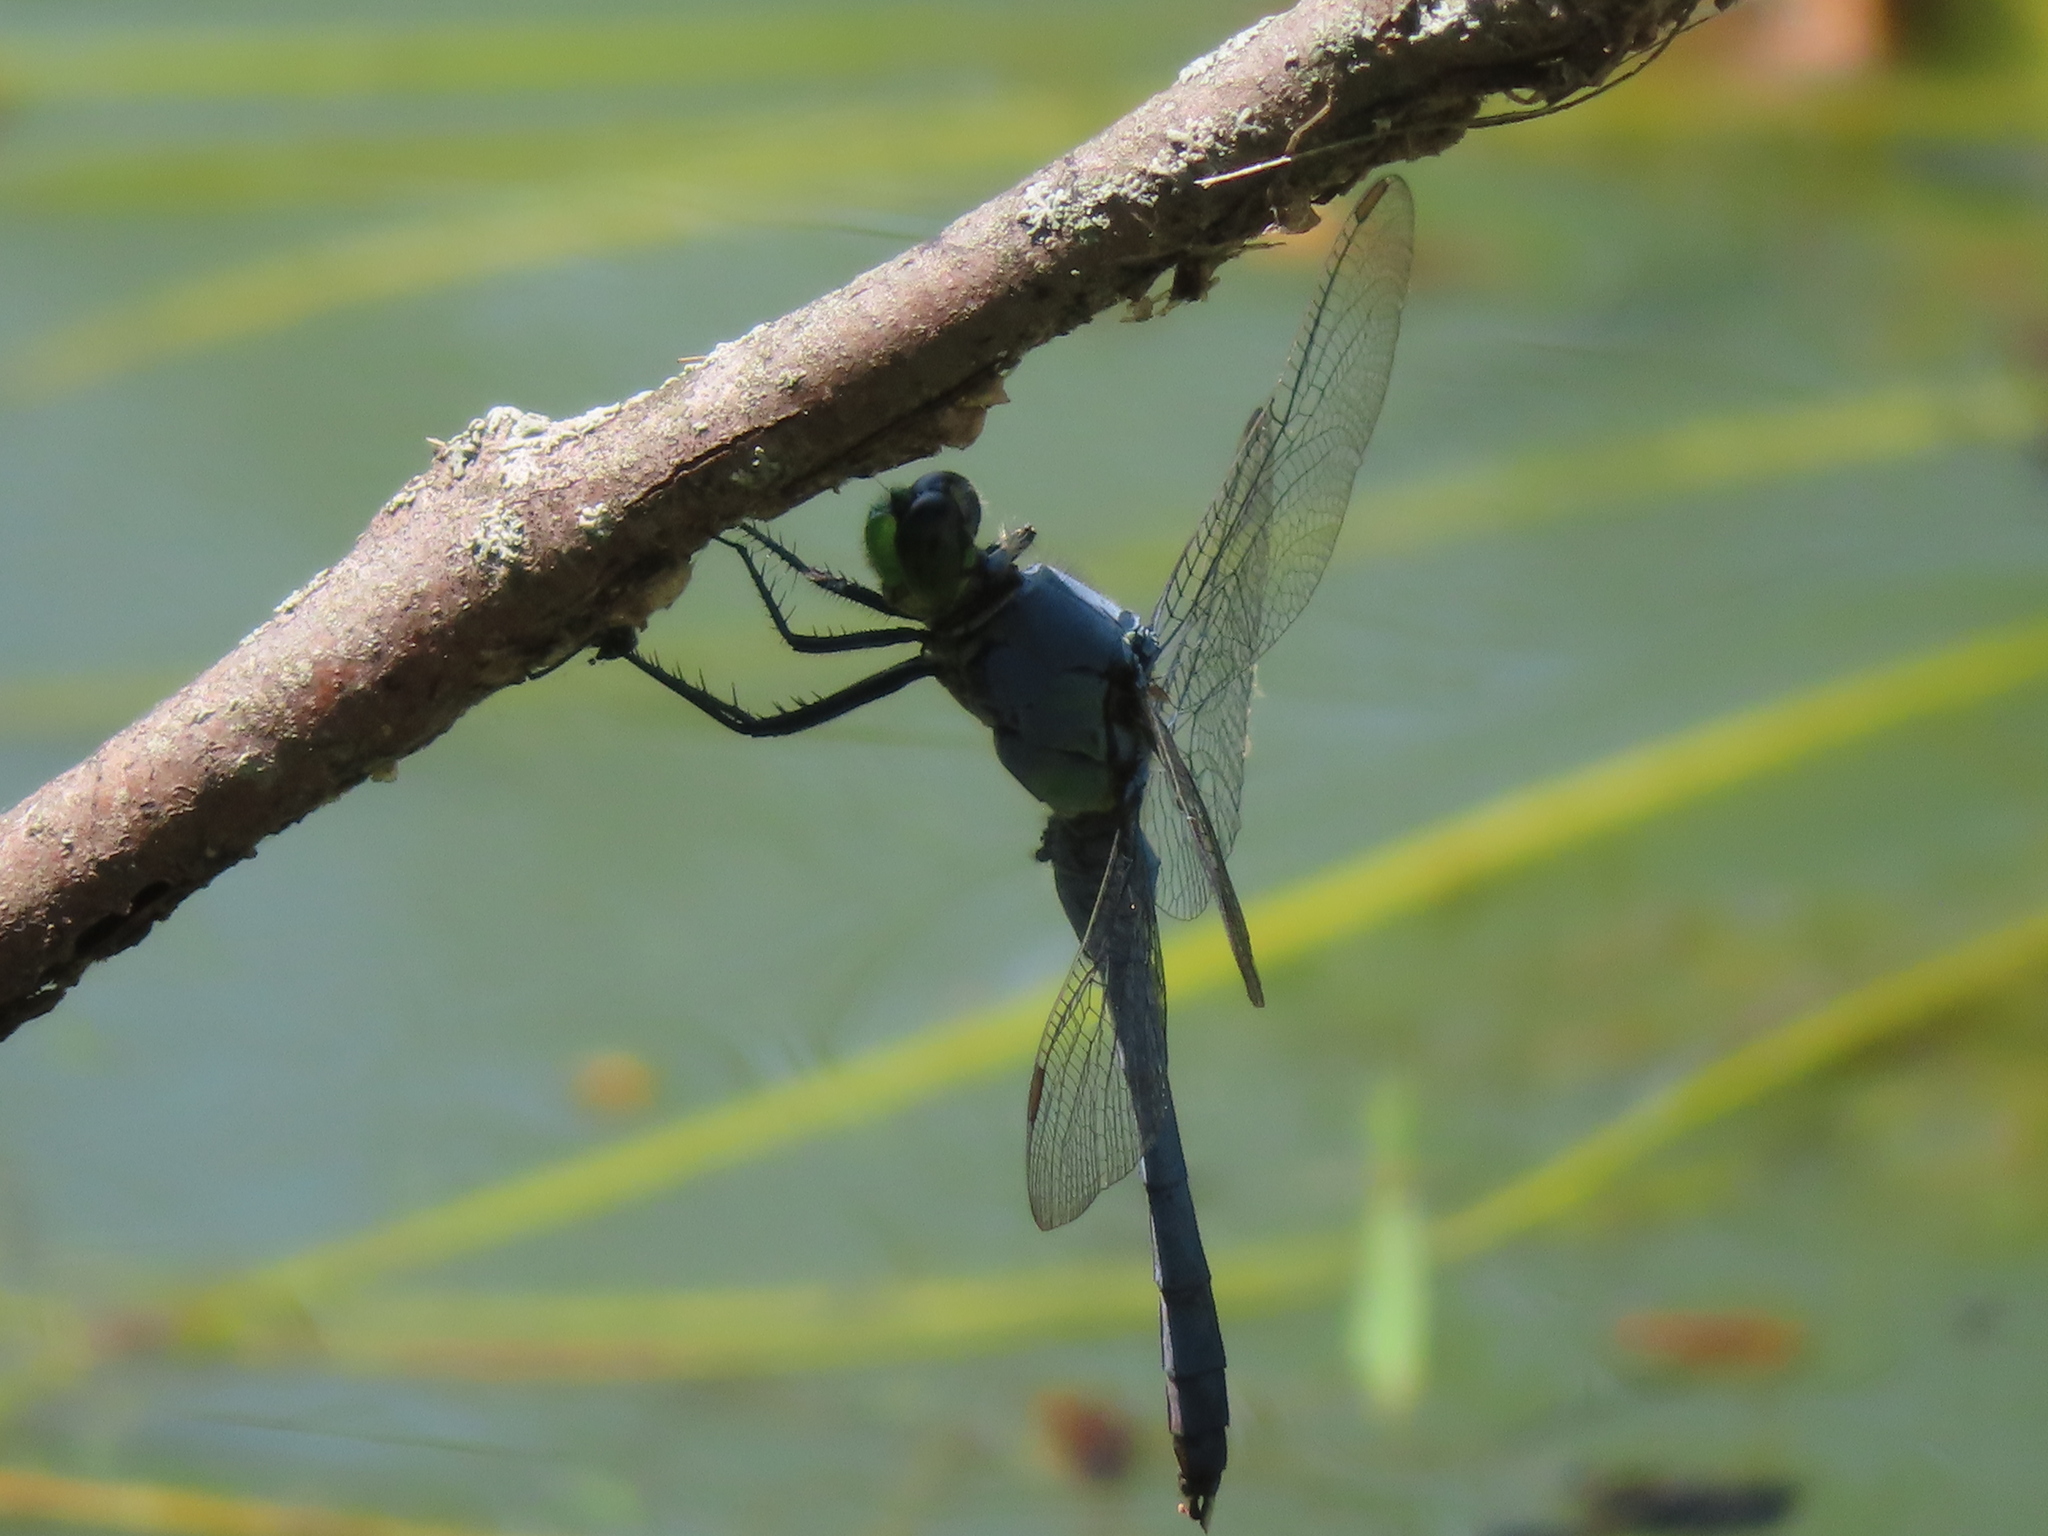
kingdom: Animalia
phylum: Arthropoda
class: Insecta
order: Odonata
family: Libellulidae
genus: Erythemis
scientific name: Erythemis simplicicollis
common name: Eastern pondhawk
